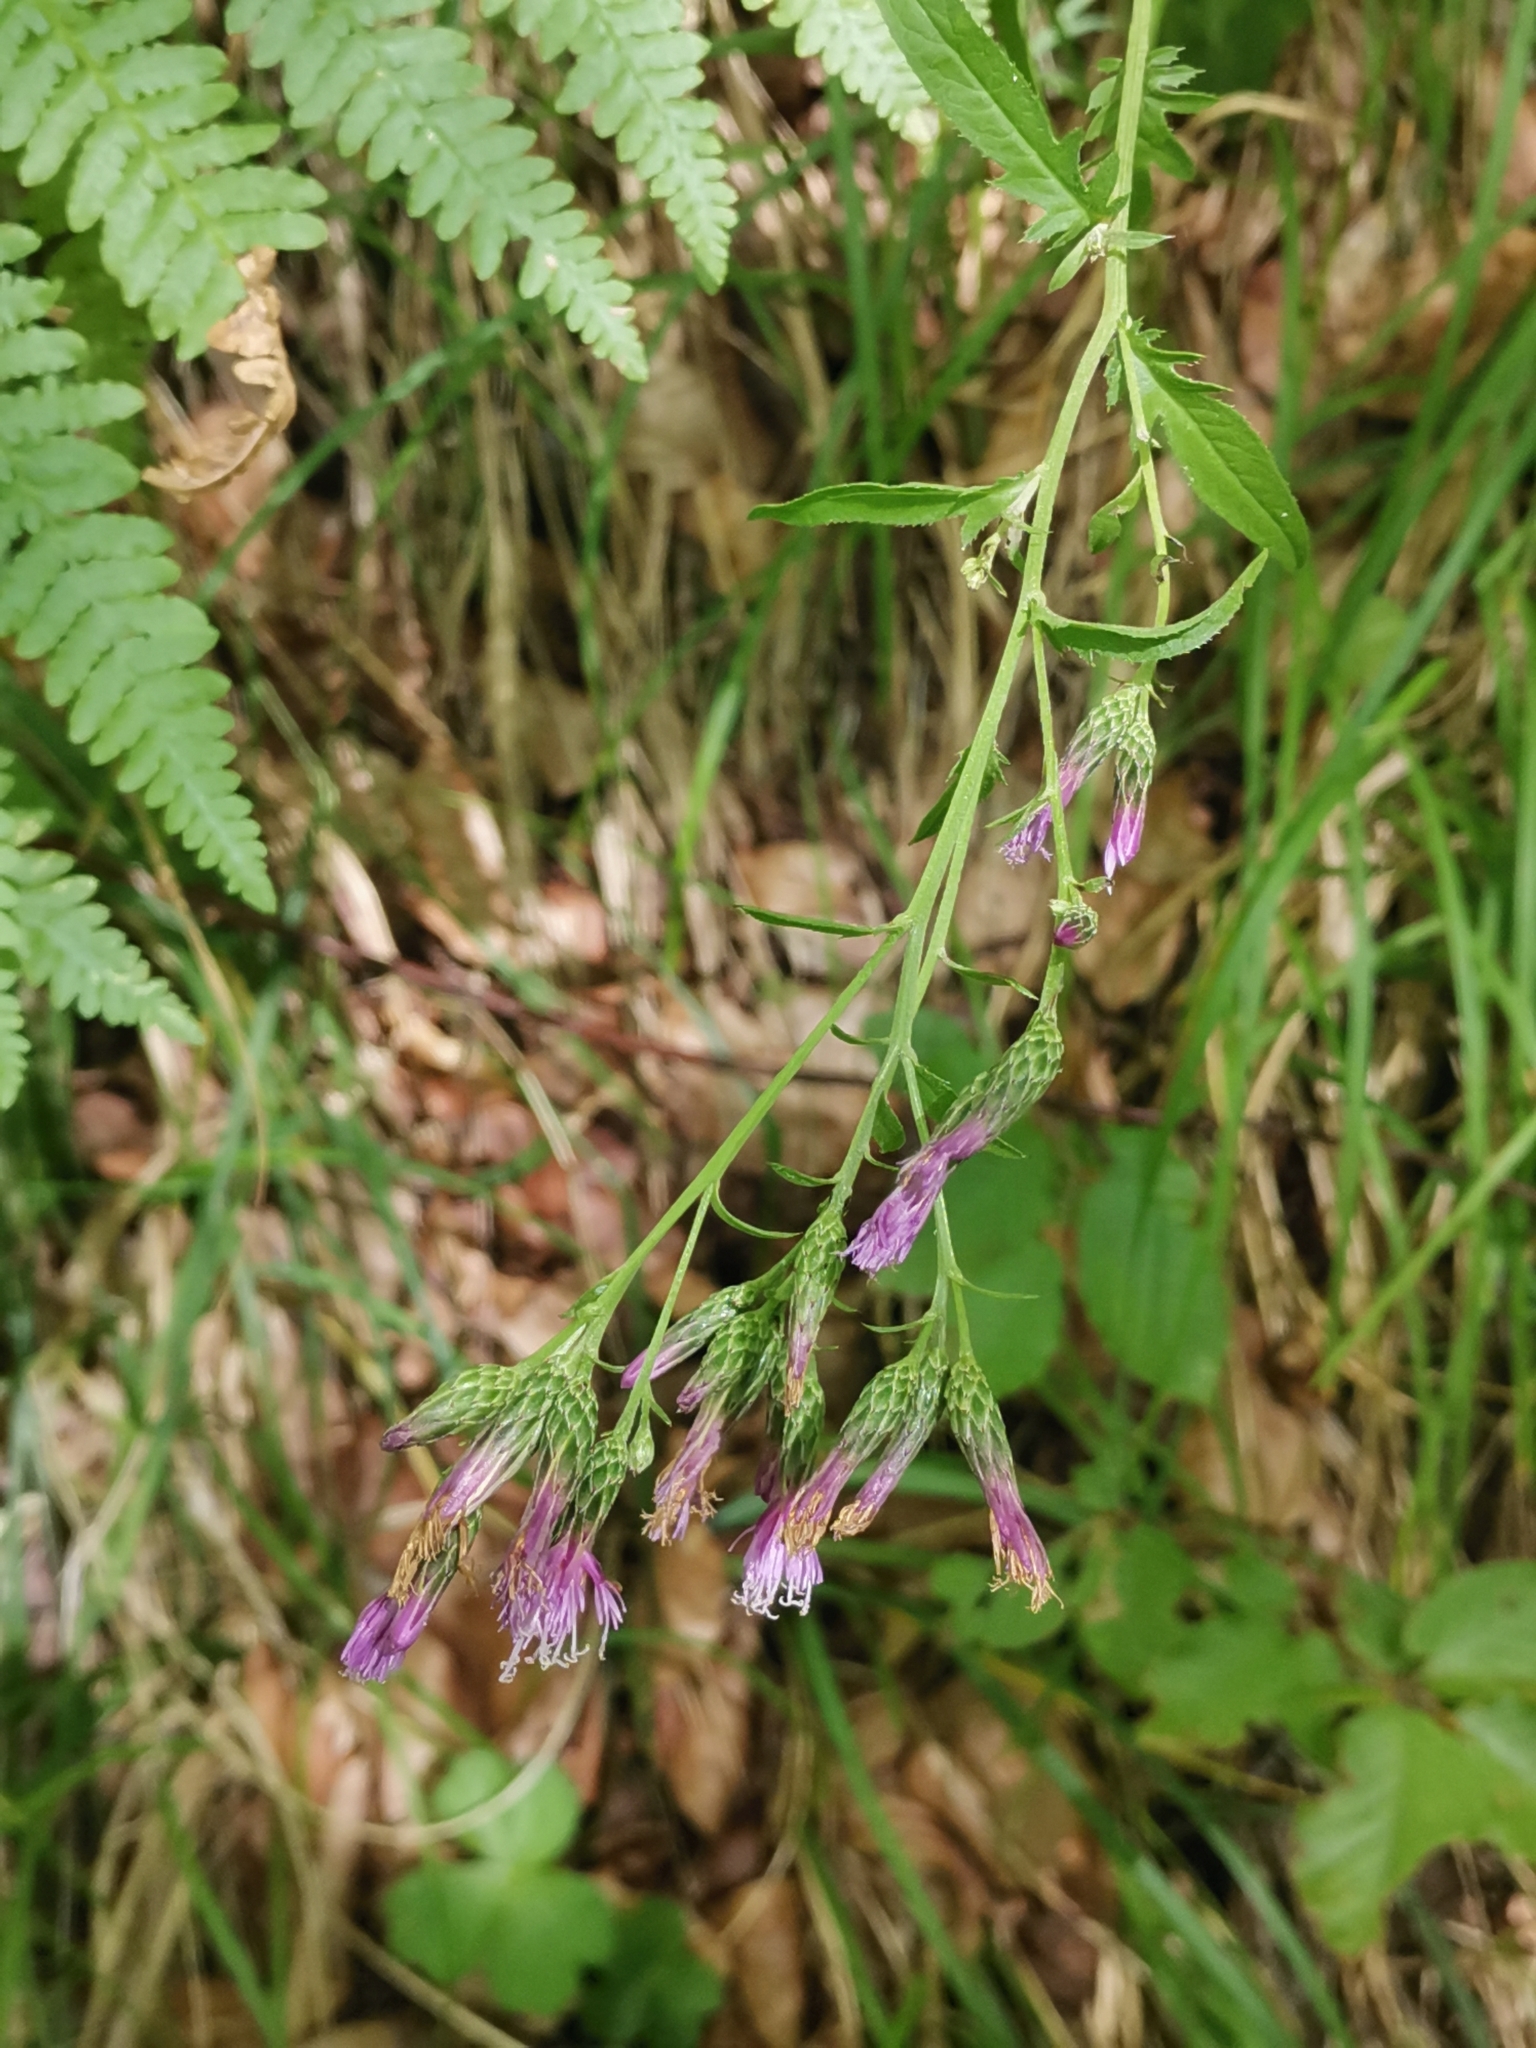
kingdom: Plantae
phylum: Tracheophyta
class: Magnoliopsida
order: Asterales
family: Asteraceae
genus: Serratula
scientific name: Serratula tinctoria
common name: Saw-wort
